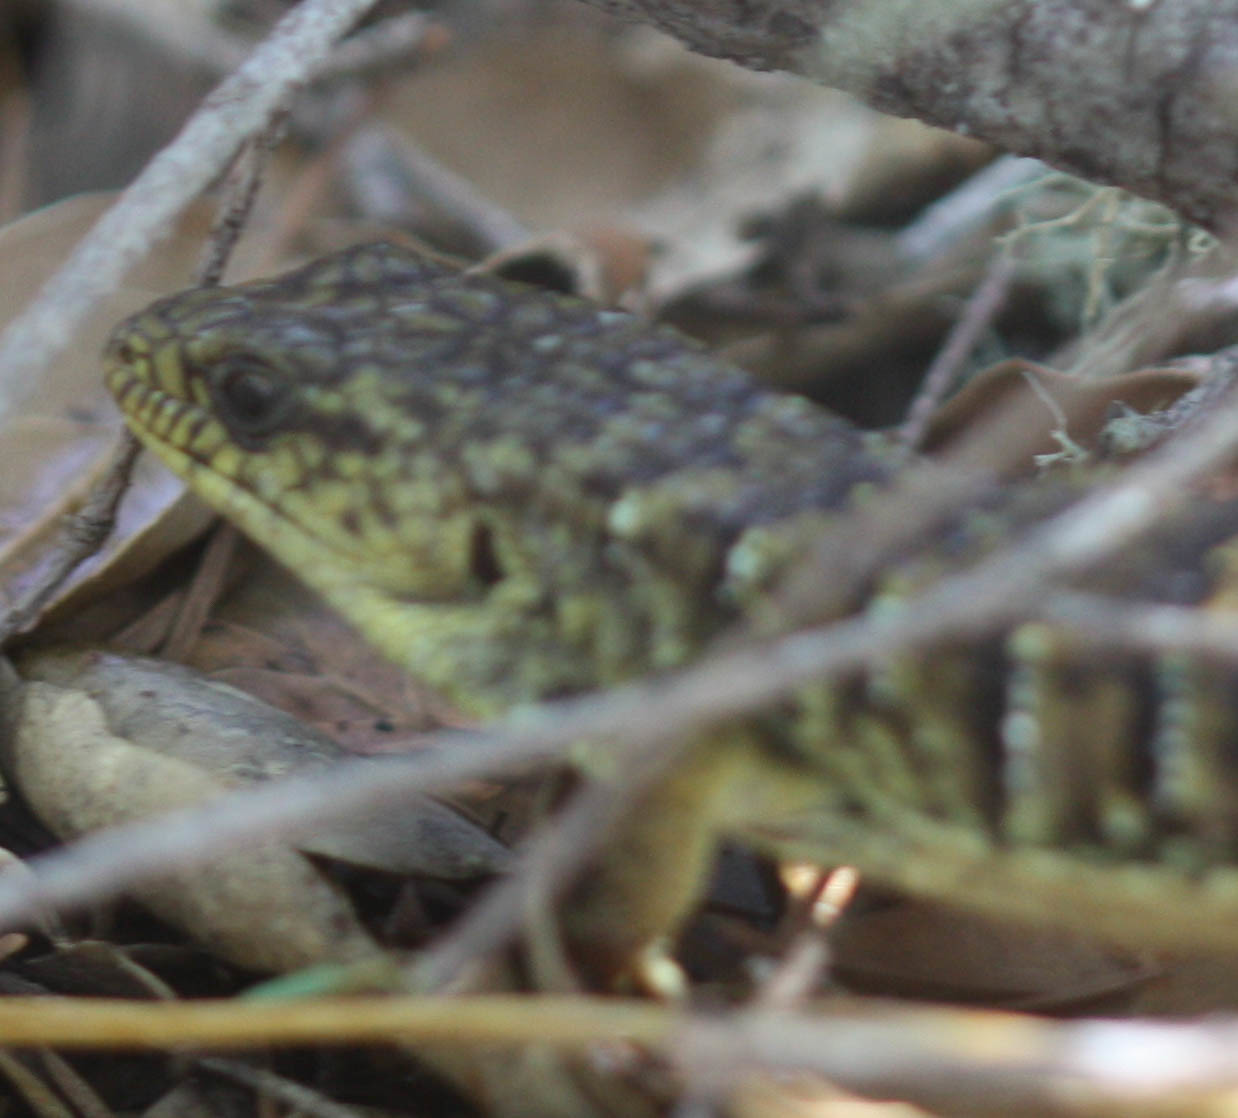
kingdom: Animalia
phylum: Chordata
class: Squamata
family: Anguidae
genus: Elgaria
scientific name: Elgaria coerulea
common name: Northern alligator lizard
